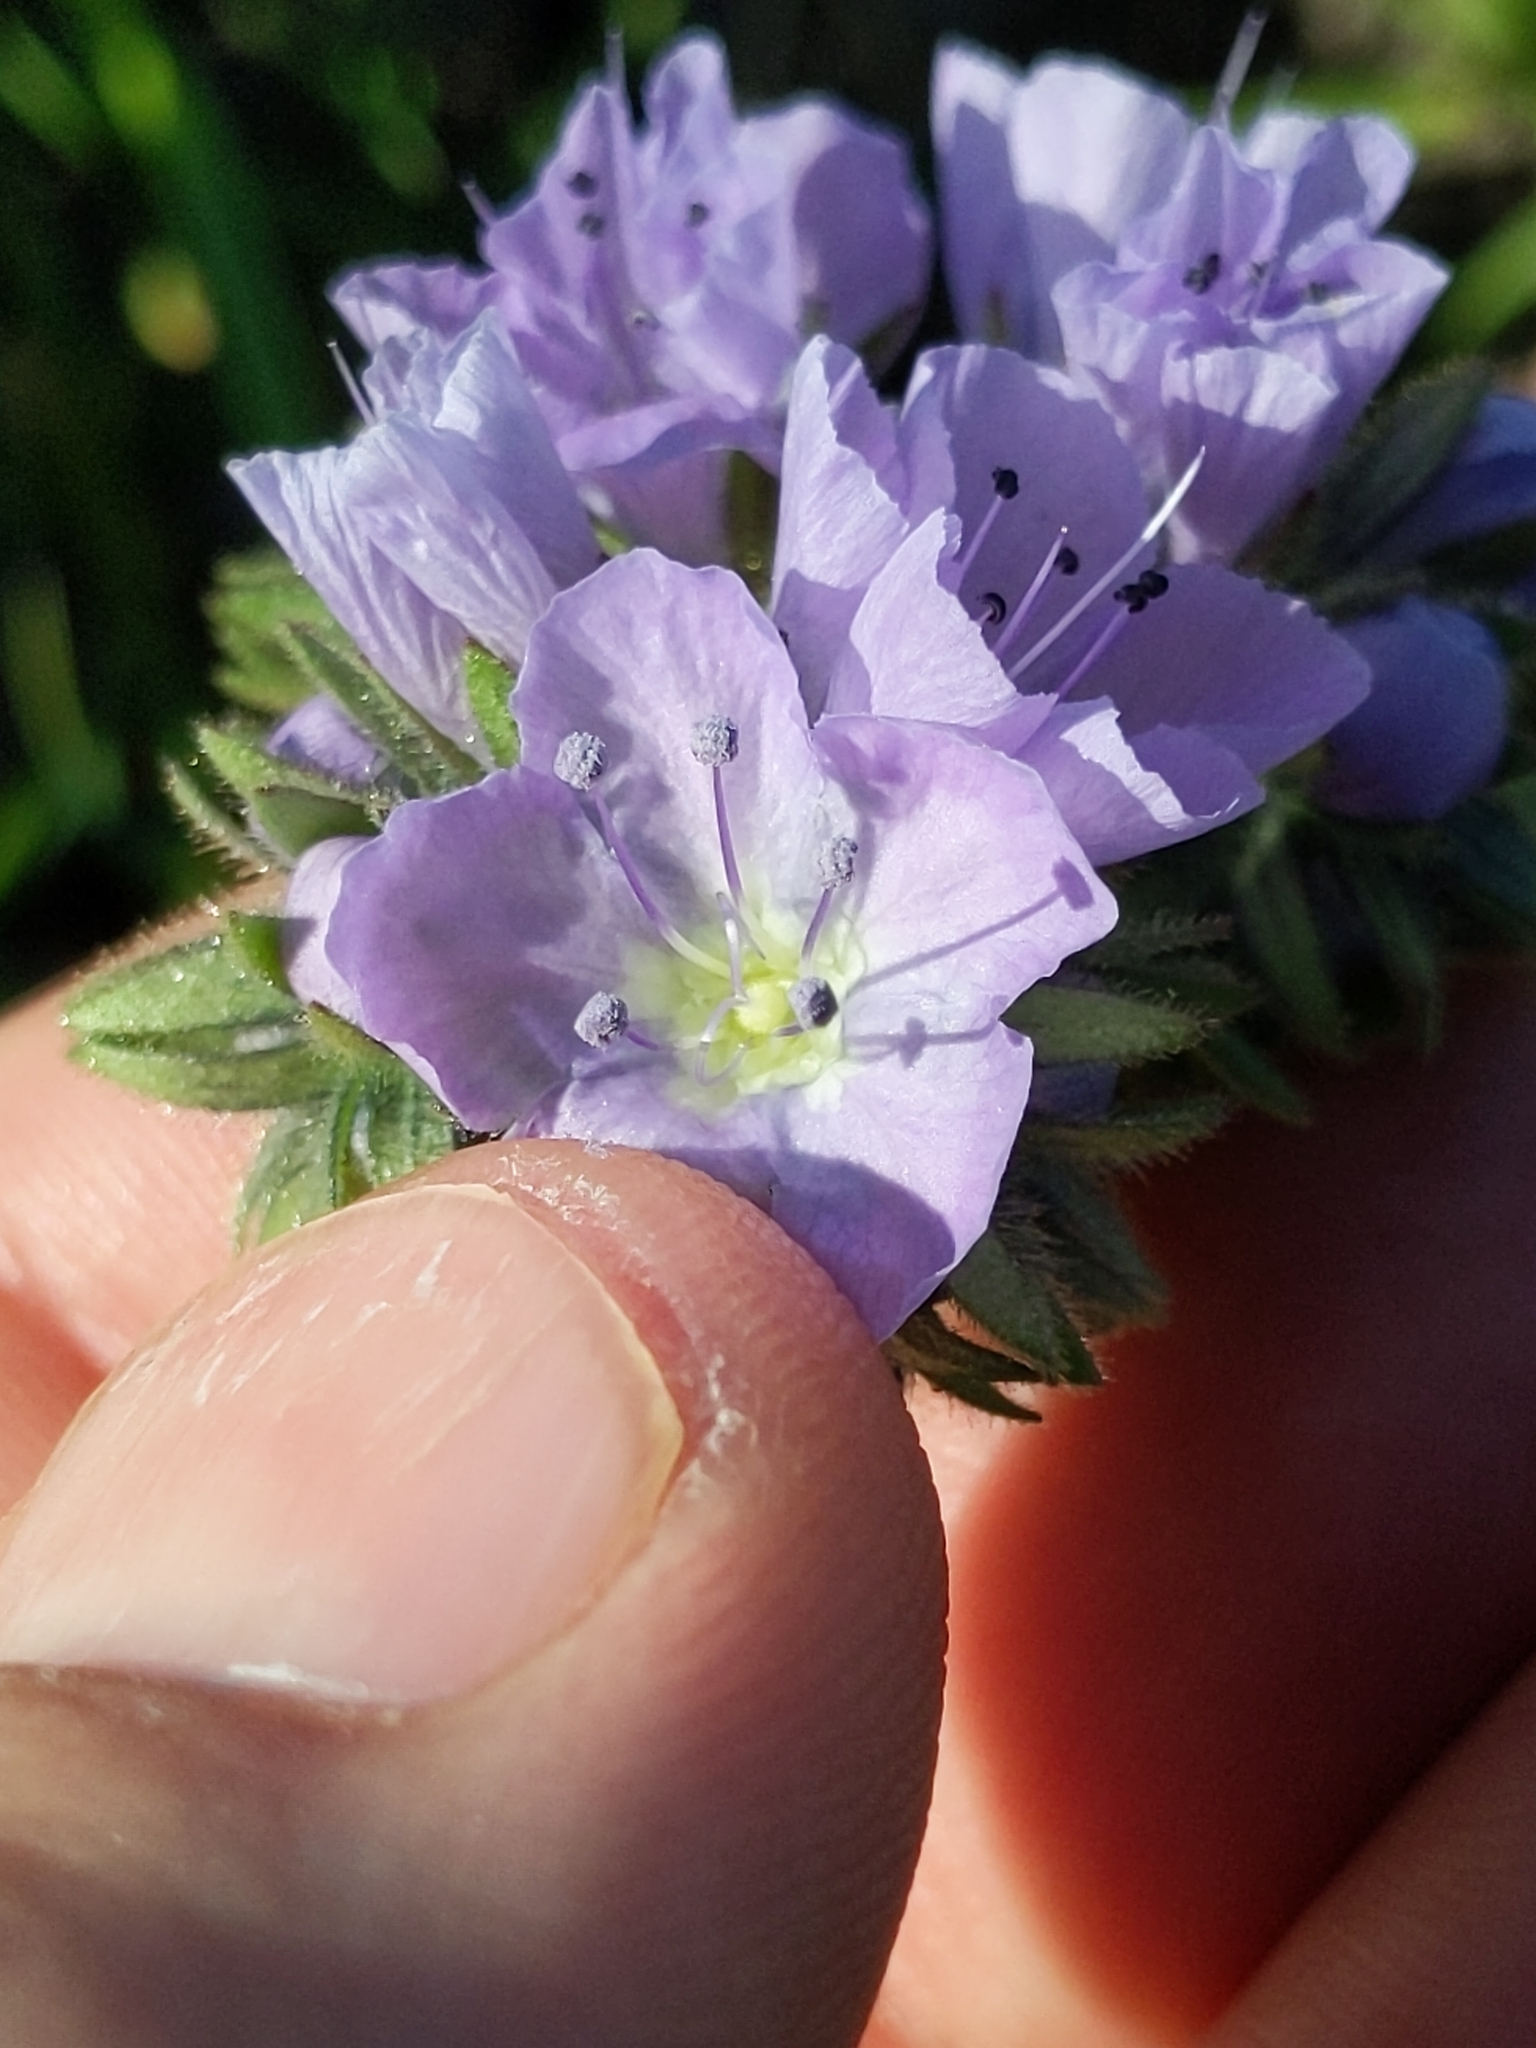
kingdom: Plantae
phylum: Tracheophyta
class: Magnoliopsida
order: Boraginales
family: Hydrophyllaceae
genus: Phacelia
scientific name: Phacelia ciliata
